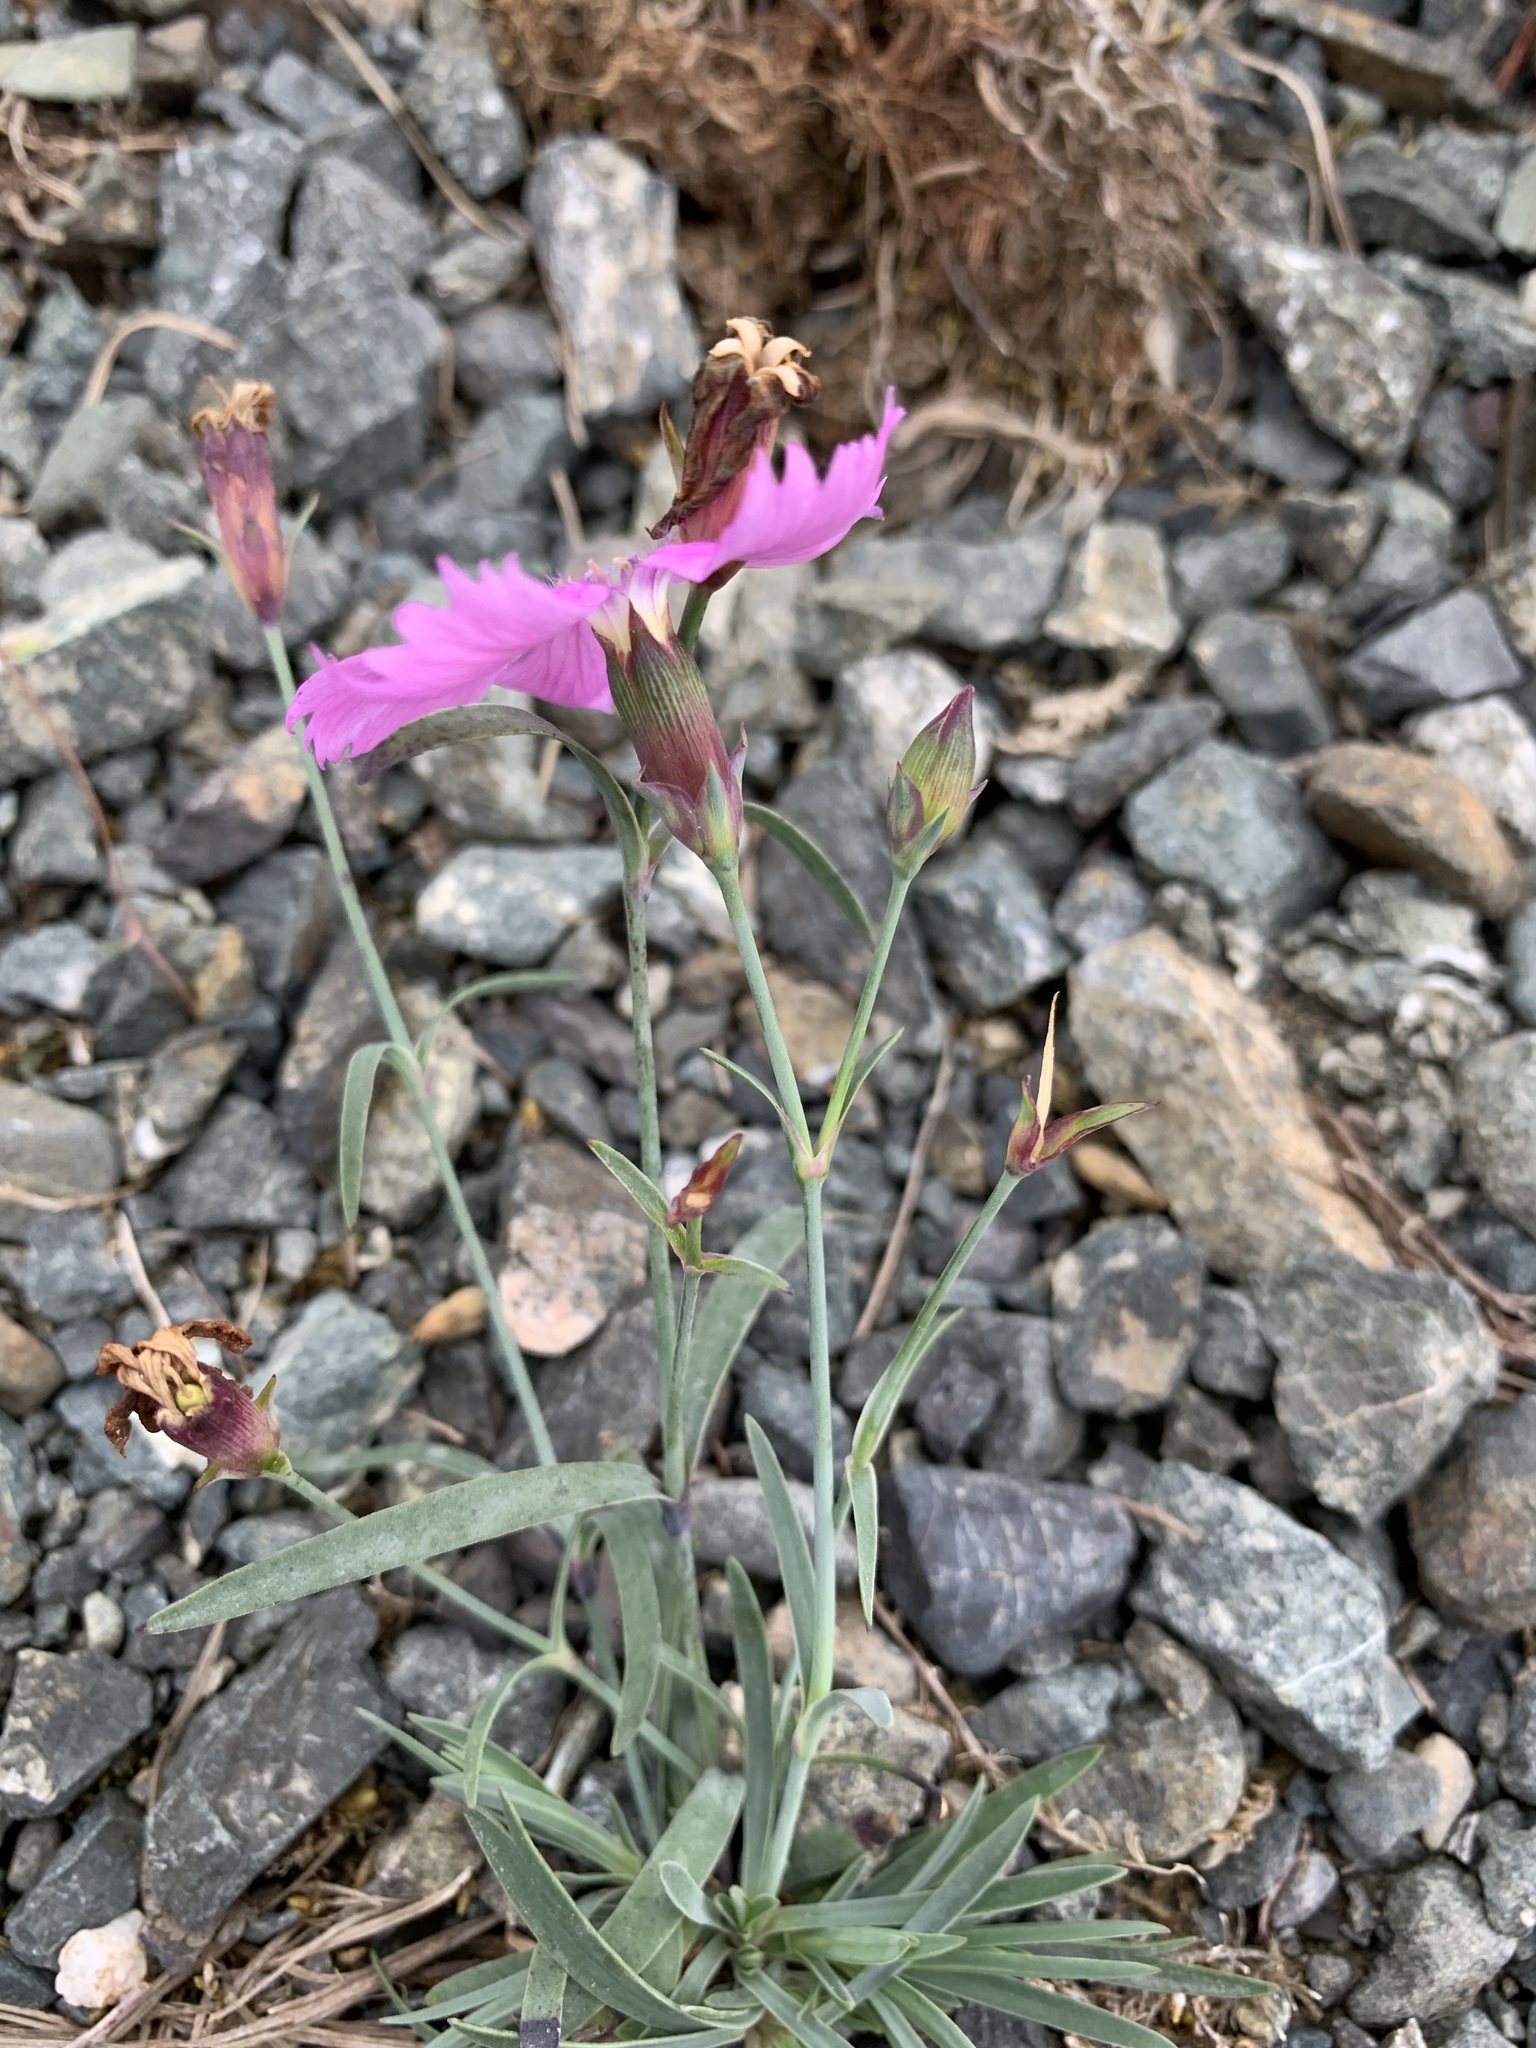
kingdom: Plantae
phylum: Tracheophyta
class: Magnoliopsida
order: Caryophyllales
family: Caryophyllaceae
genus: Dianthus
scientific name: Dianthus repens
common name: Northern pink
